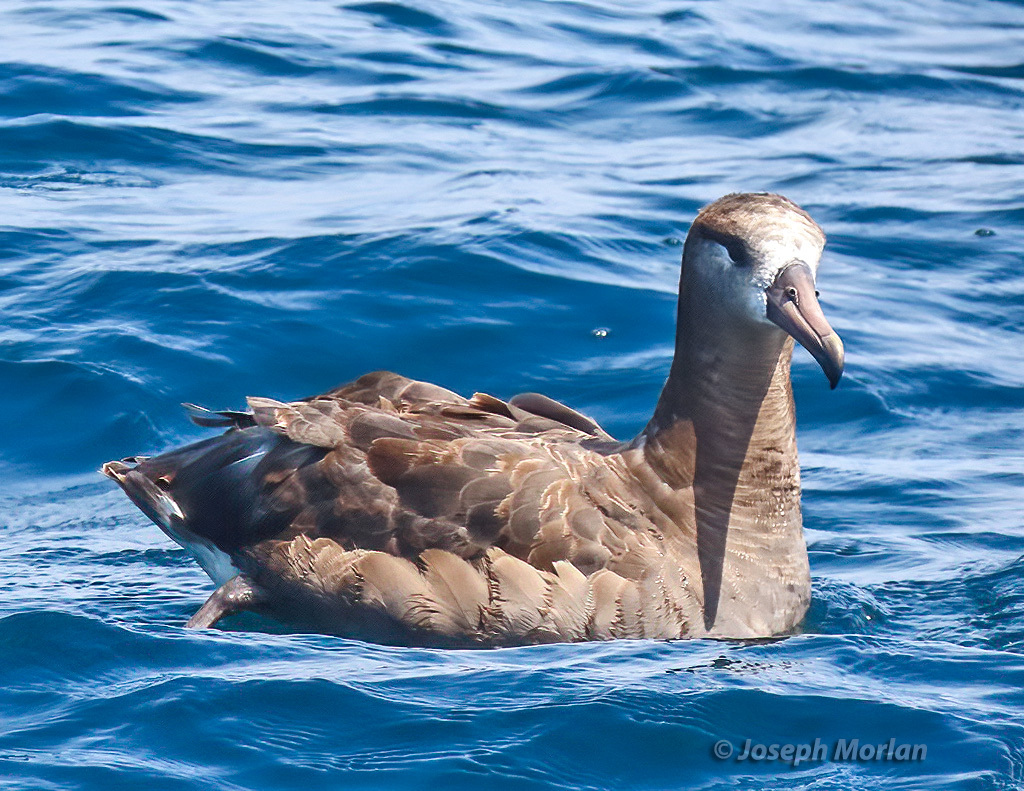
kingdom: Animalia
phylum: Chordata
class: Aves
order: Procellariiformes
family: Diomedeidae
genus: Phoebastria
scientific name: Phoebastria nigripes
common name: Black-footed albatross
